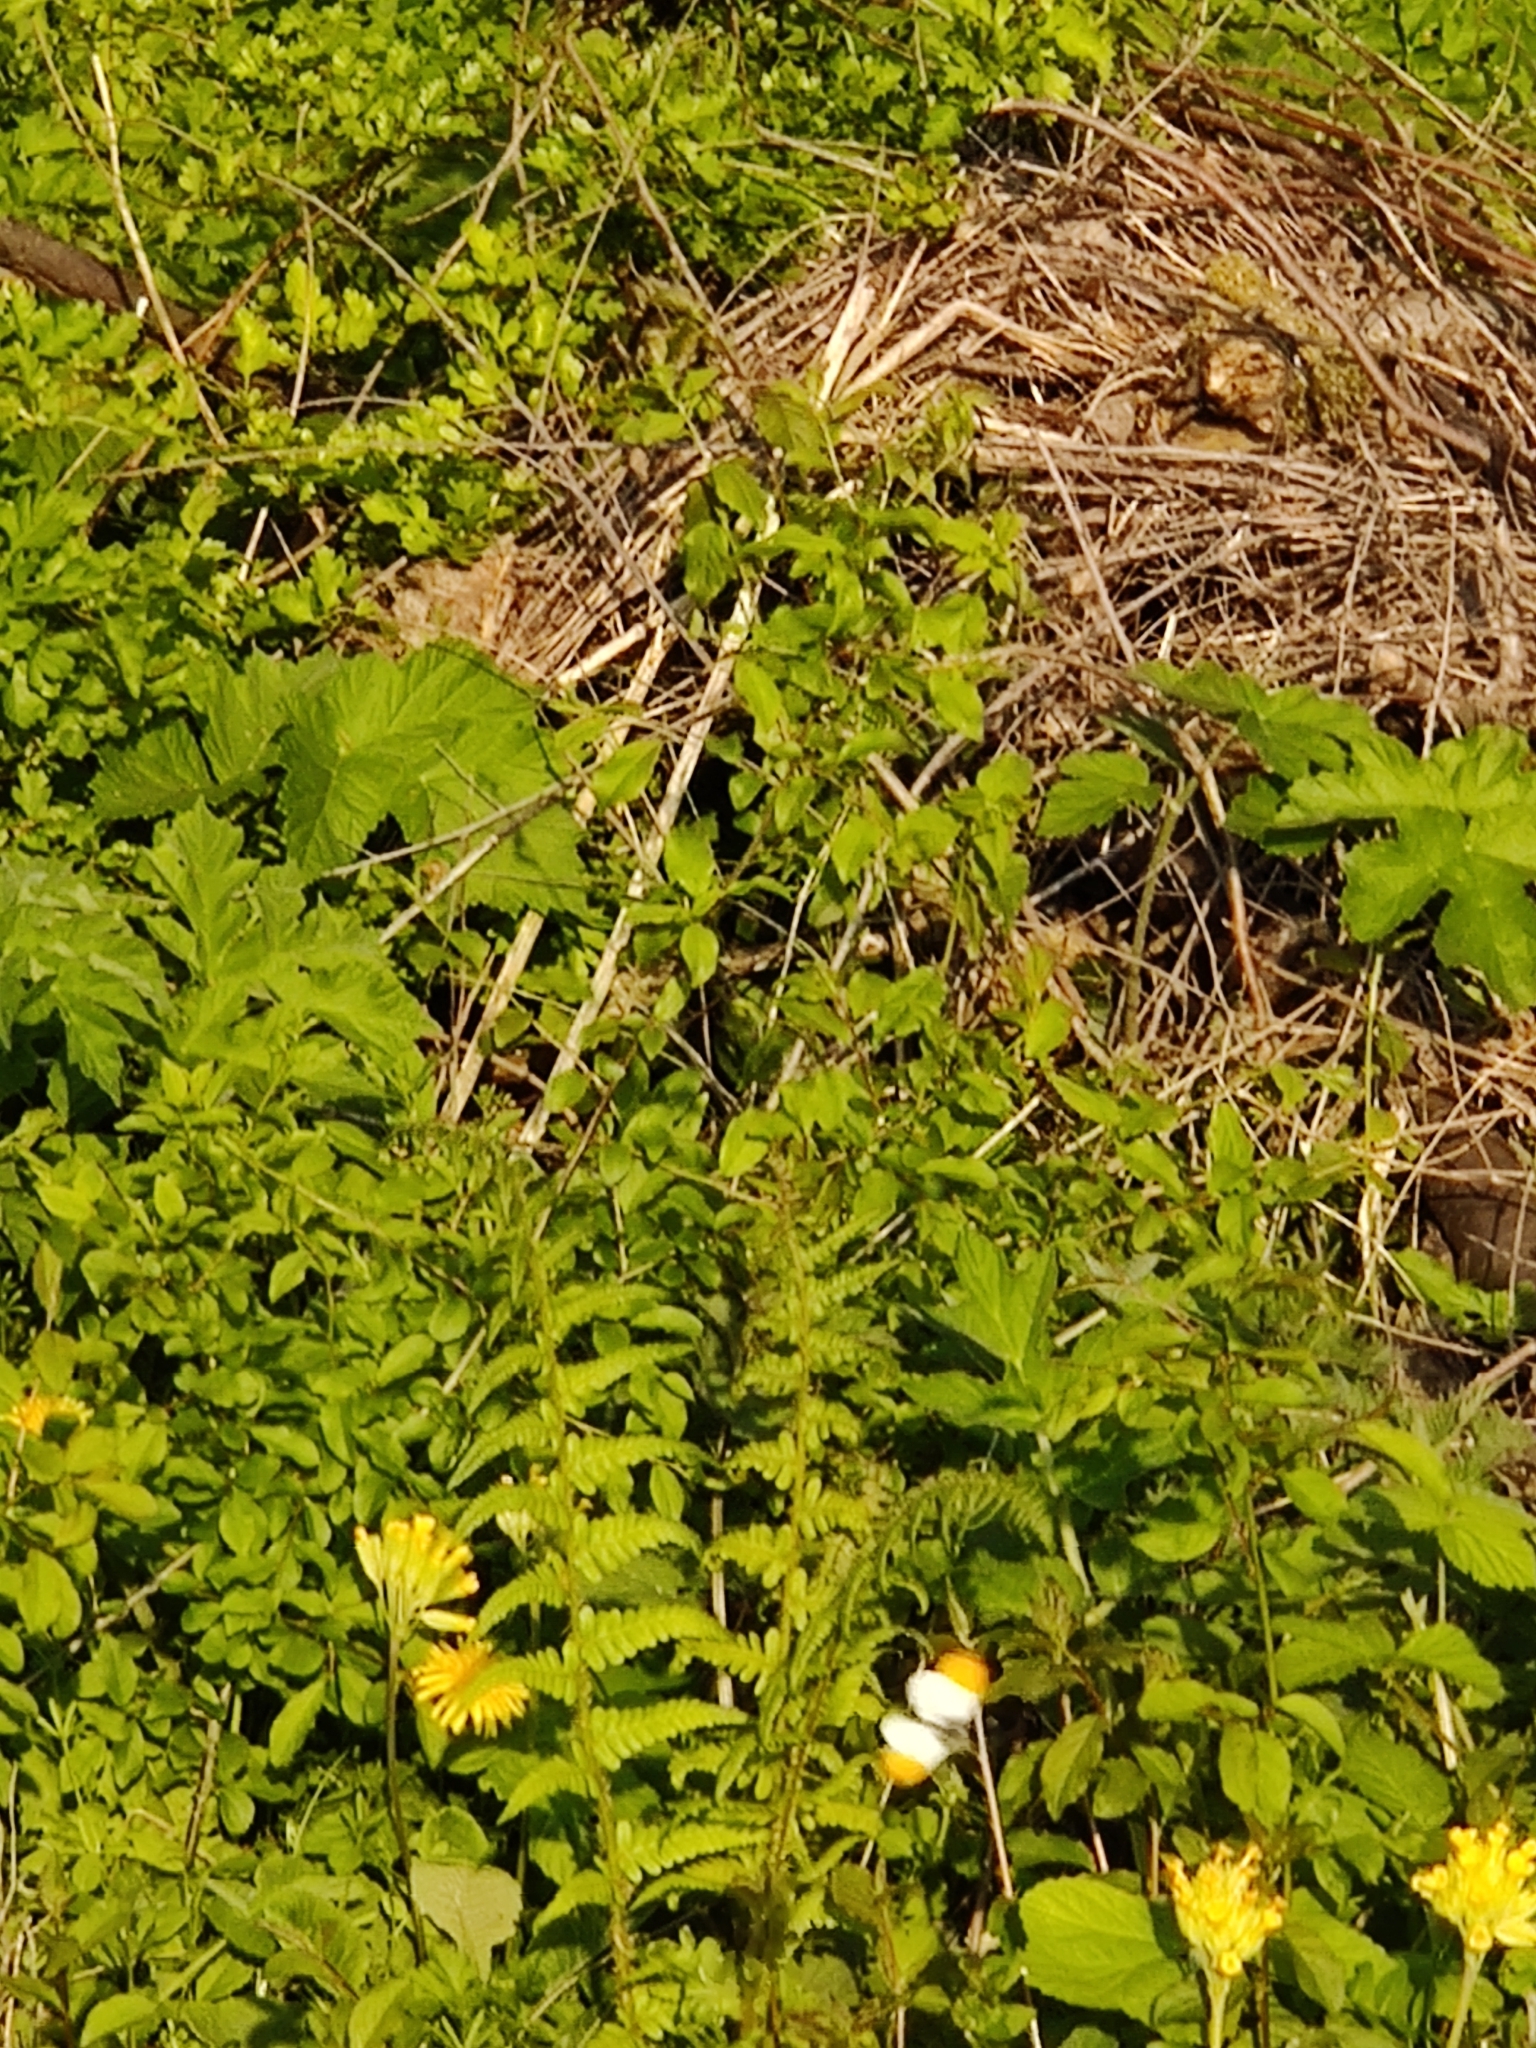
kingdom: Animalia
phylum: Arthropoda
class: Insecta
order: Lepidoptera
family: Pieridae
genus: Anthocharis
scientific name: Anthocharis cardamines
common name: Orange-tip
